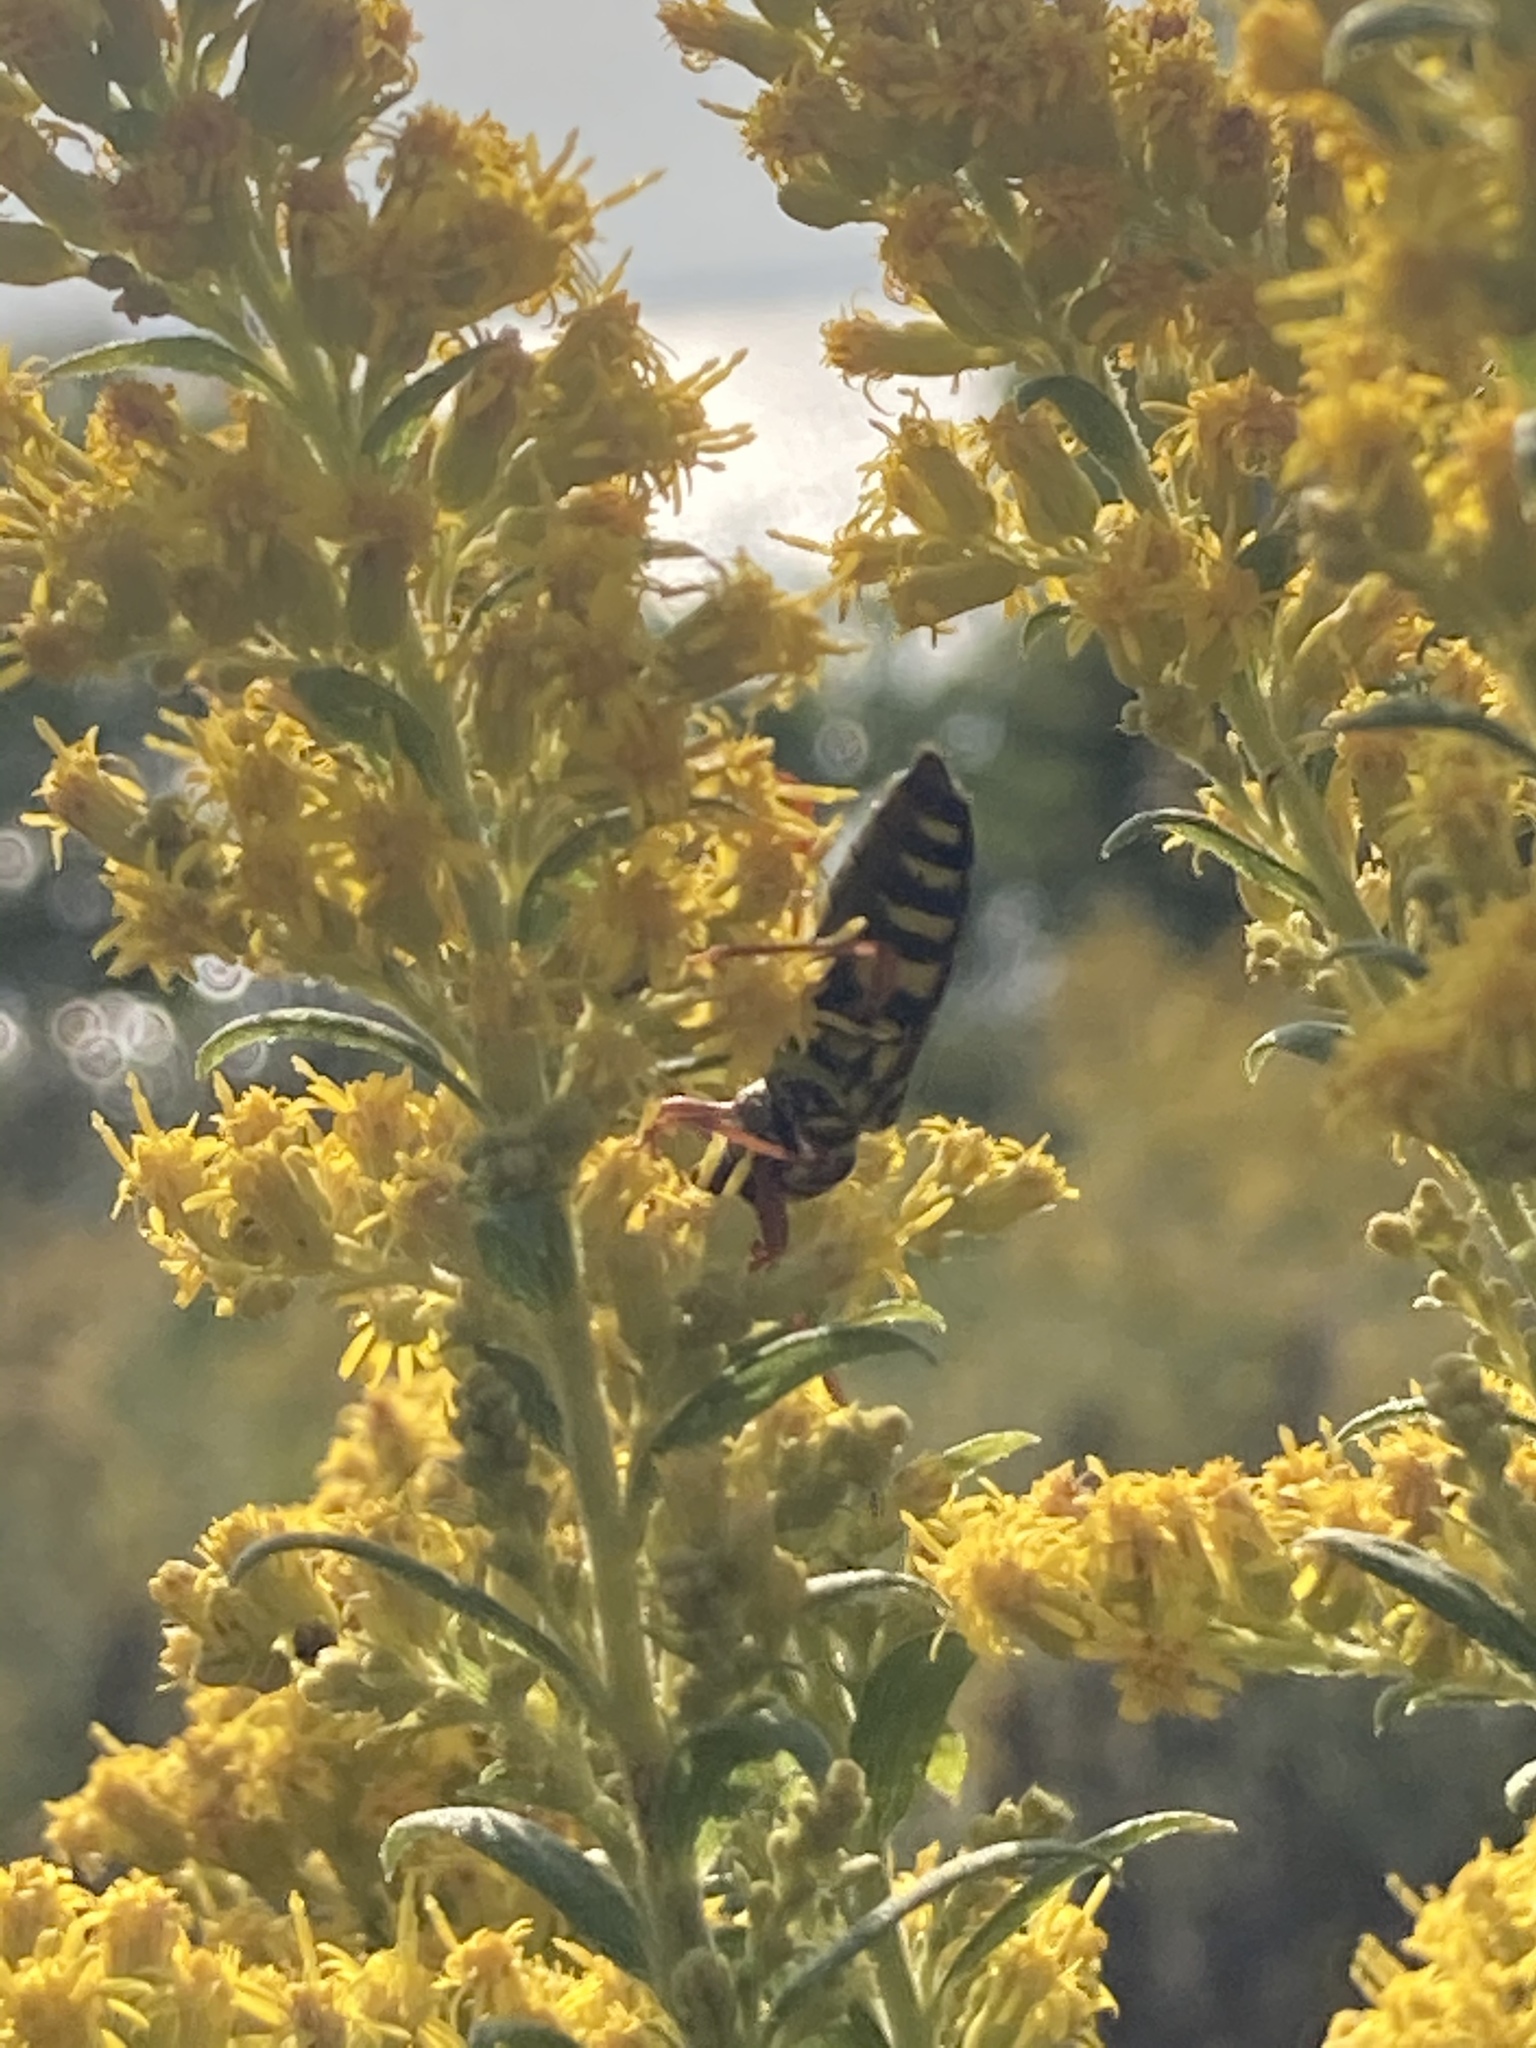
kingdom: Animalia
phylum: Arthropoda
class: Insecta
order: Coleoptera
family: Cerambycidae
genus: Megacyllene
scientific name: Megacyllene robiniae
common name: Locust borer
